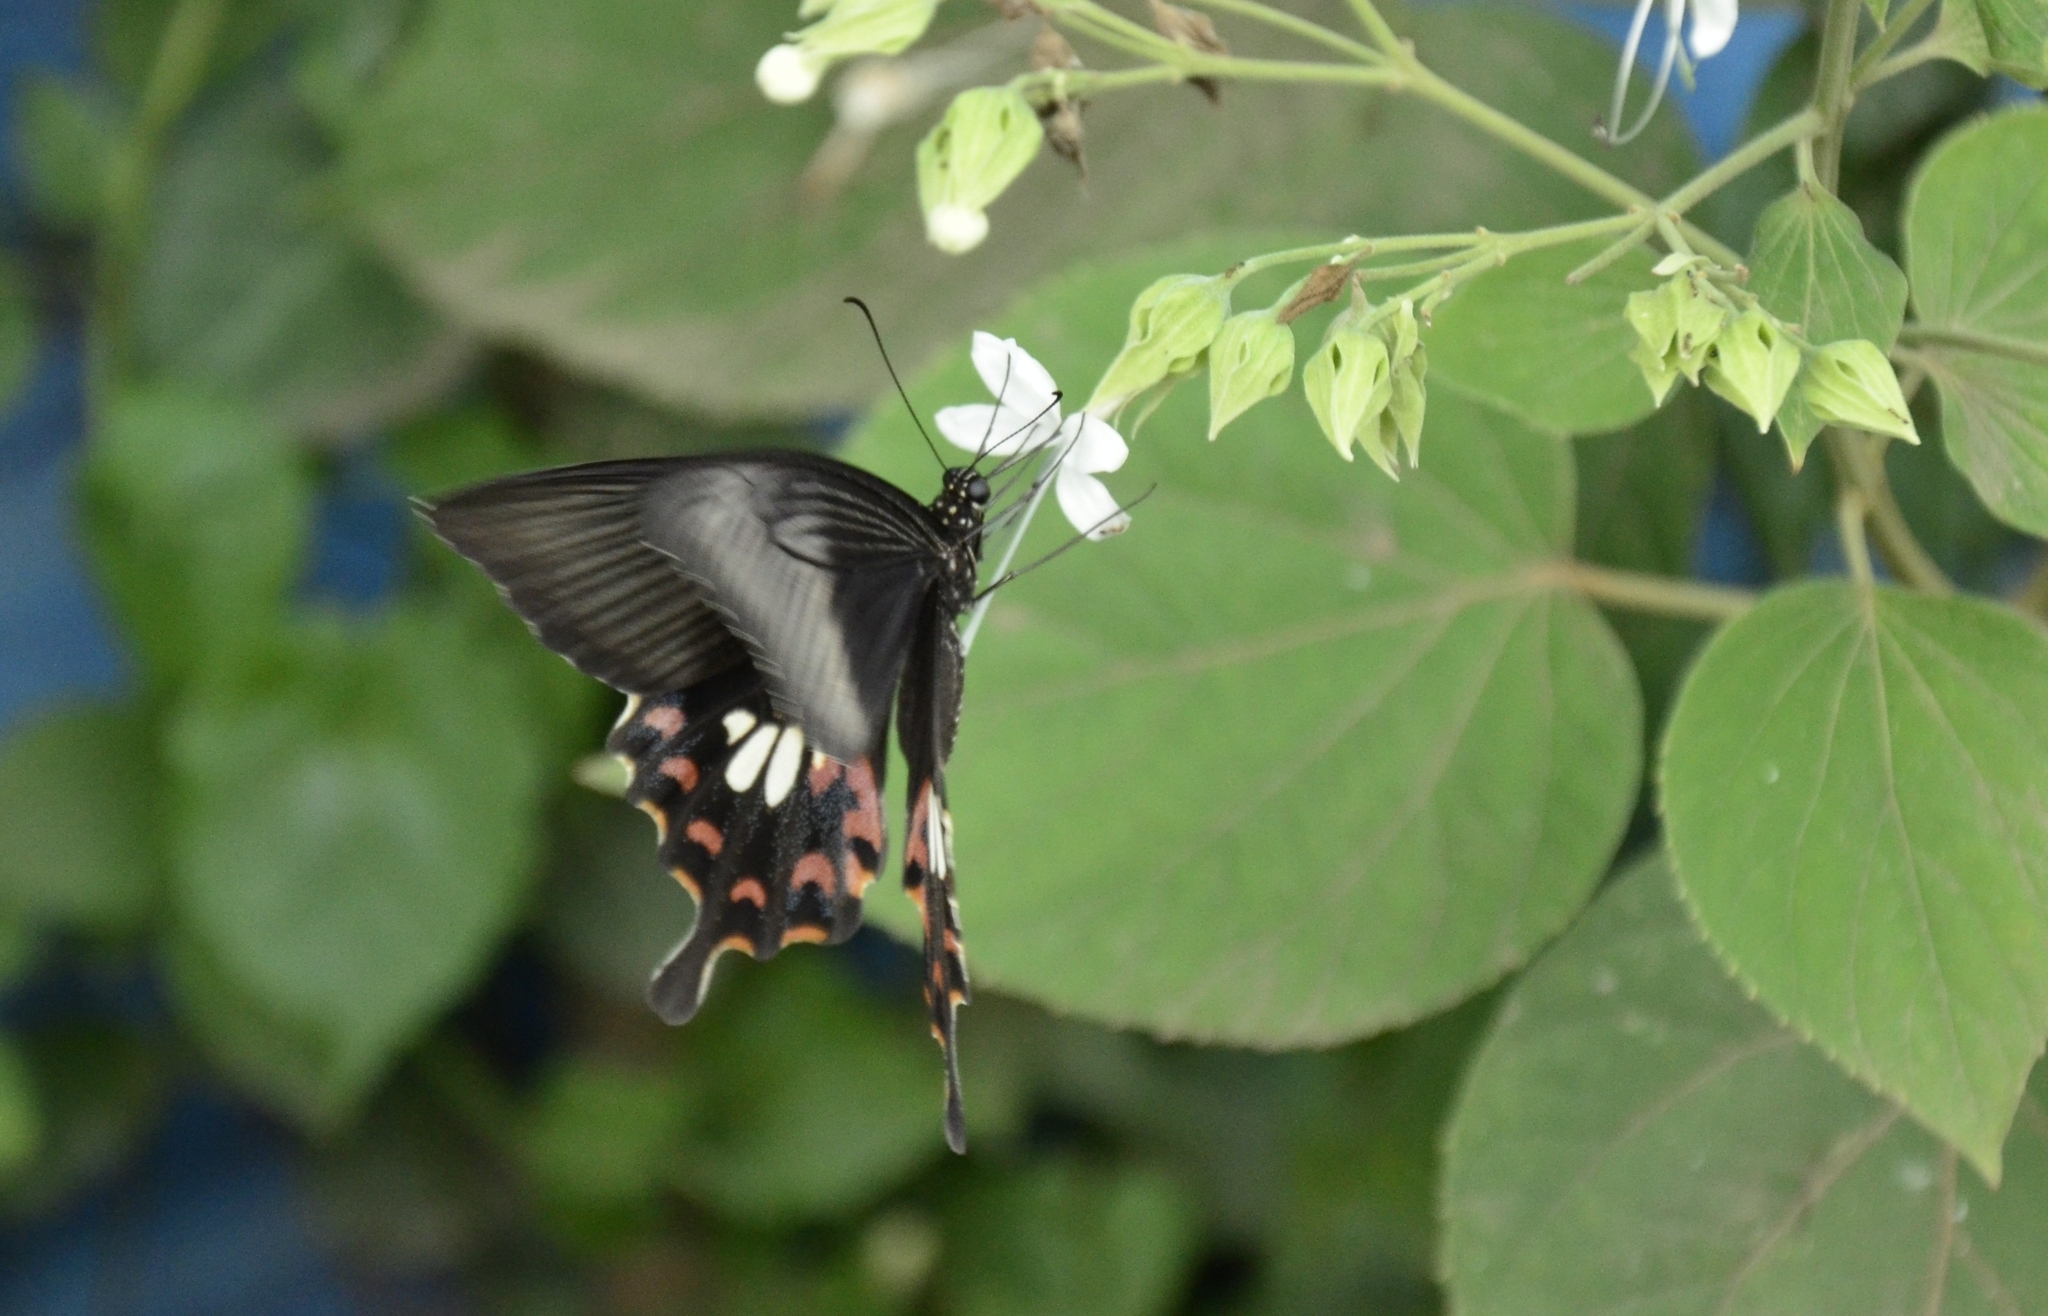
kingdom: Animalia
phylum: Arthropoda
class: Insecta
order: Lepidoptera
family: Papilionidae
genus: Papilio
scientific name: Papilio polytes
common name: Common mormon
